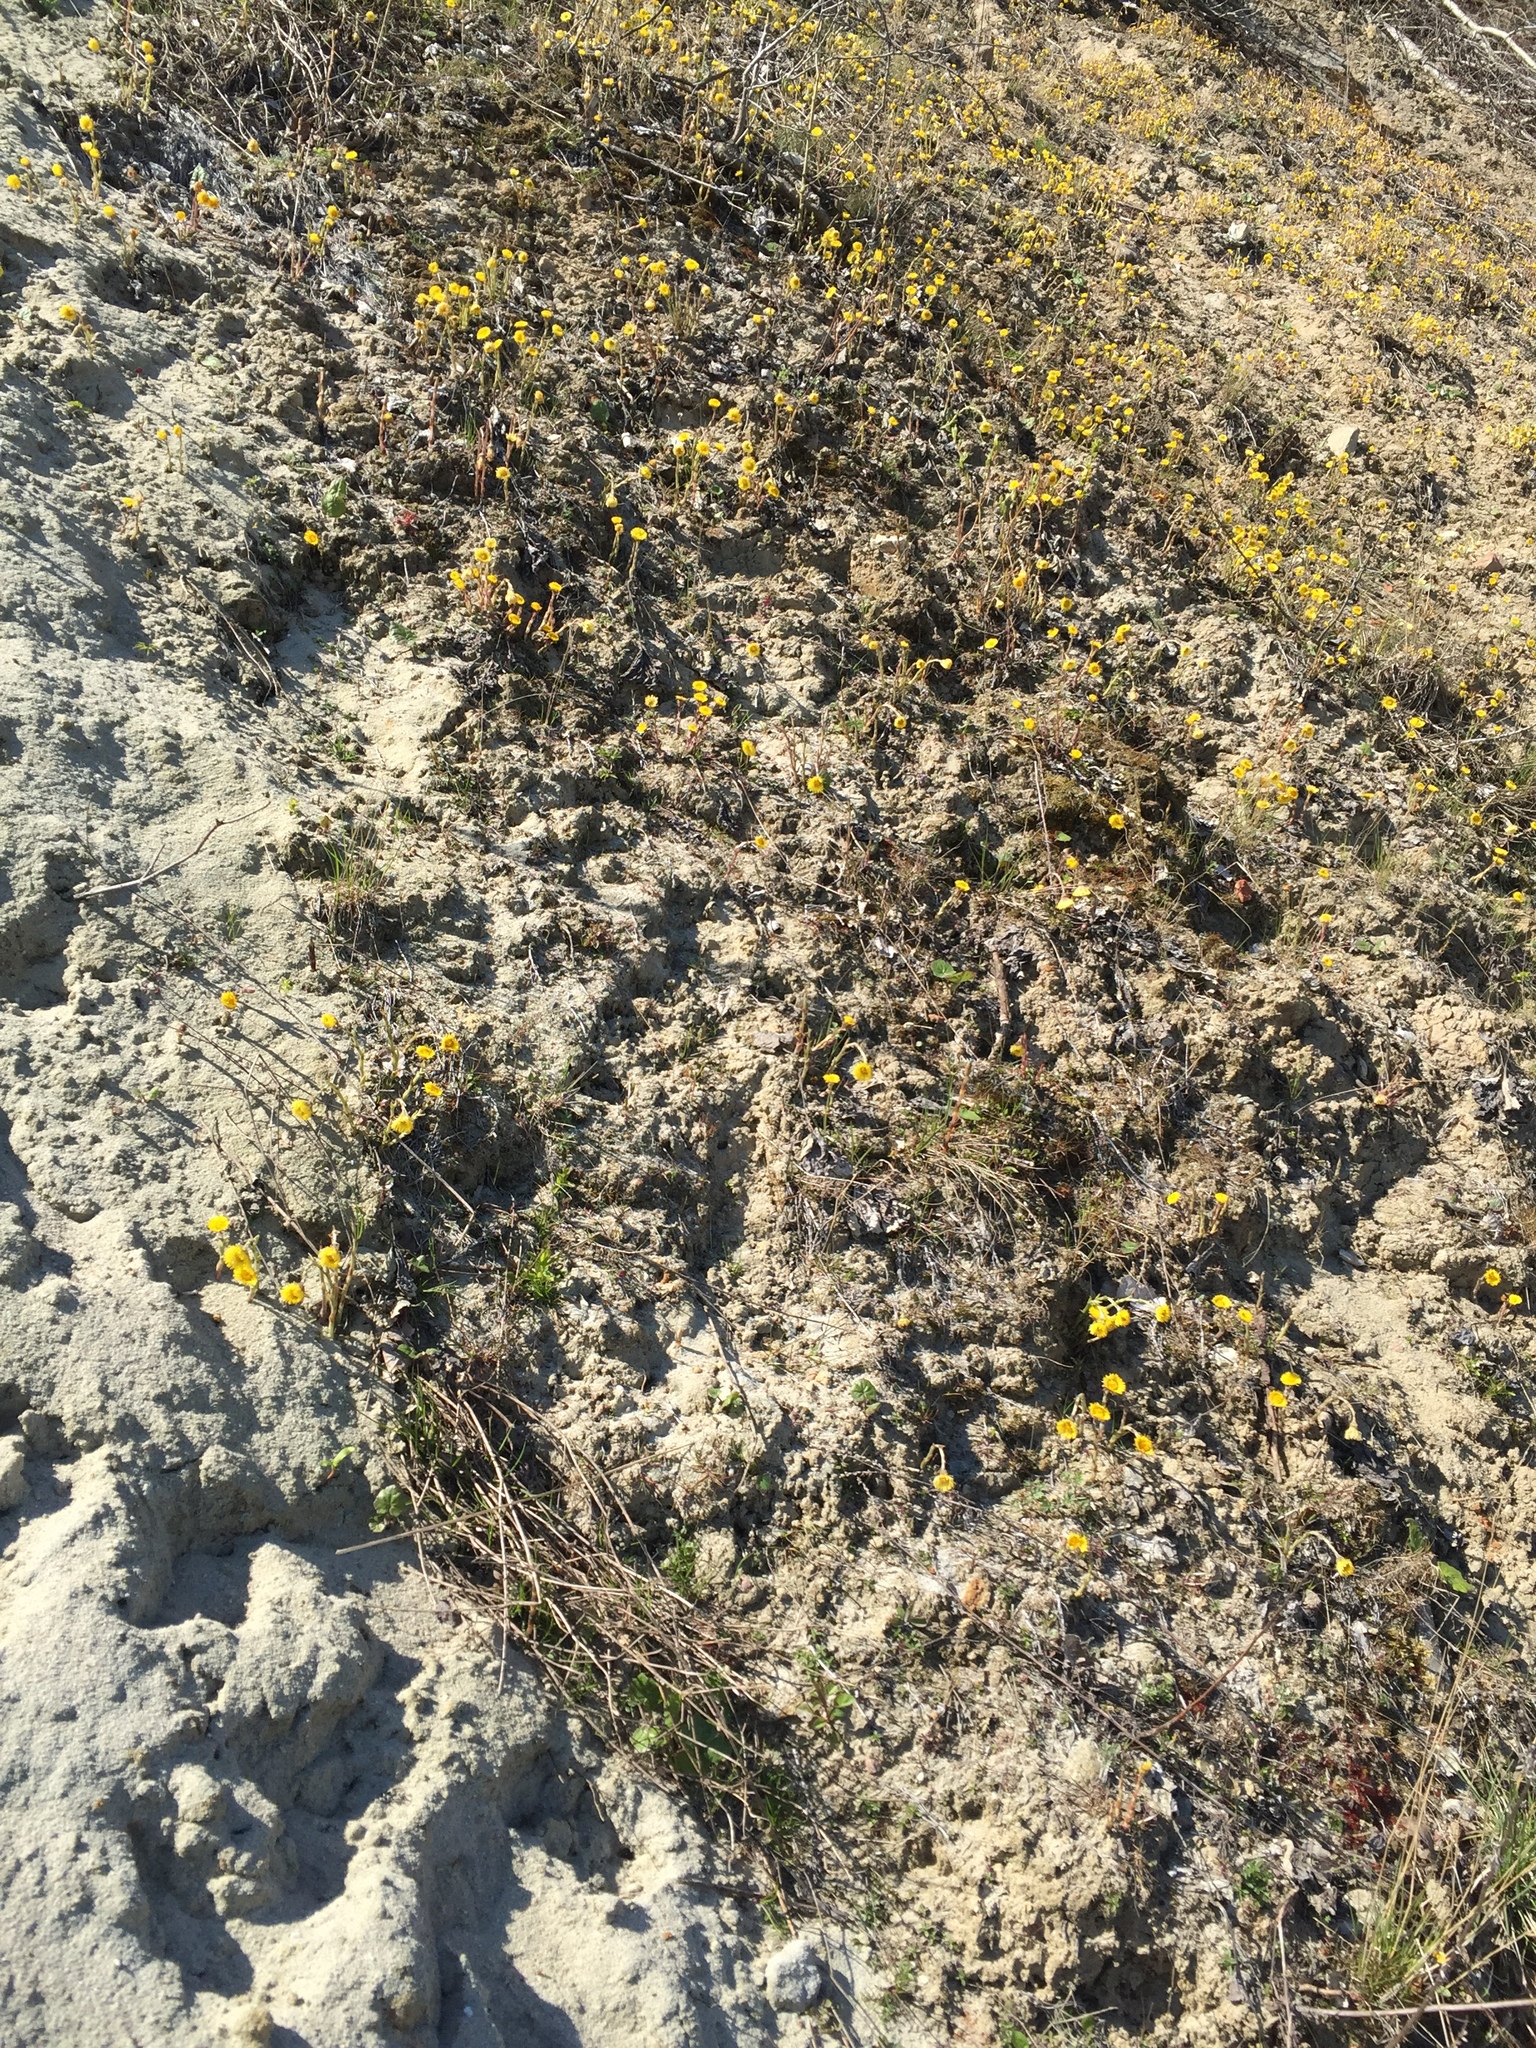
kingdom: Plantae
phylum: Tracheophyta
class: Magnoliopsida
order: Asterales
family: Asteraceae
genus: Tussilago
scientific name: Tussilago farfara
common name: Coltsfoot
